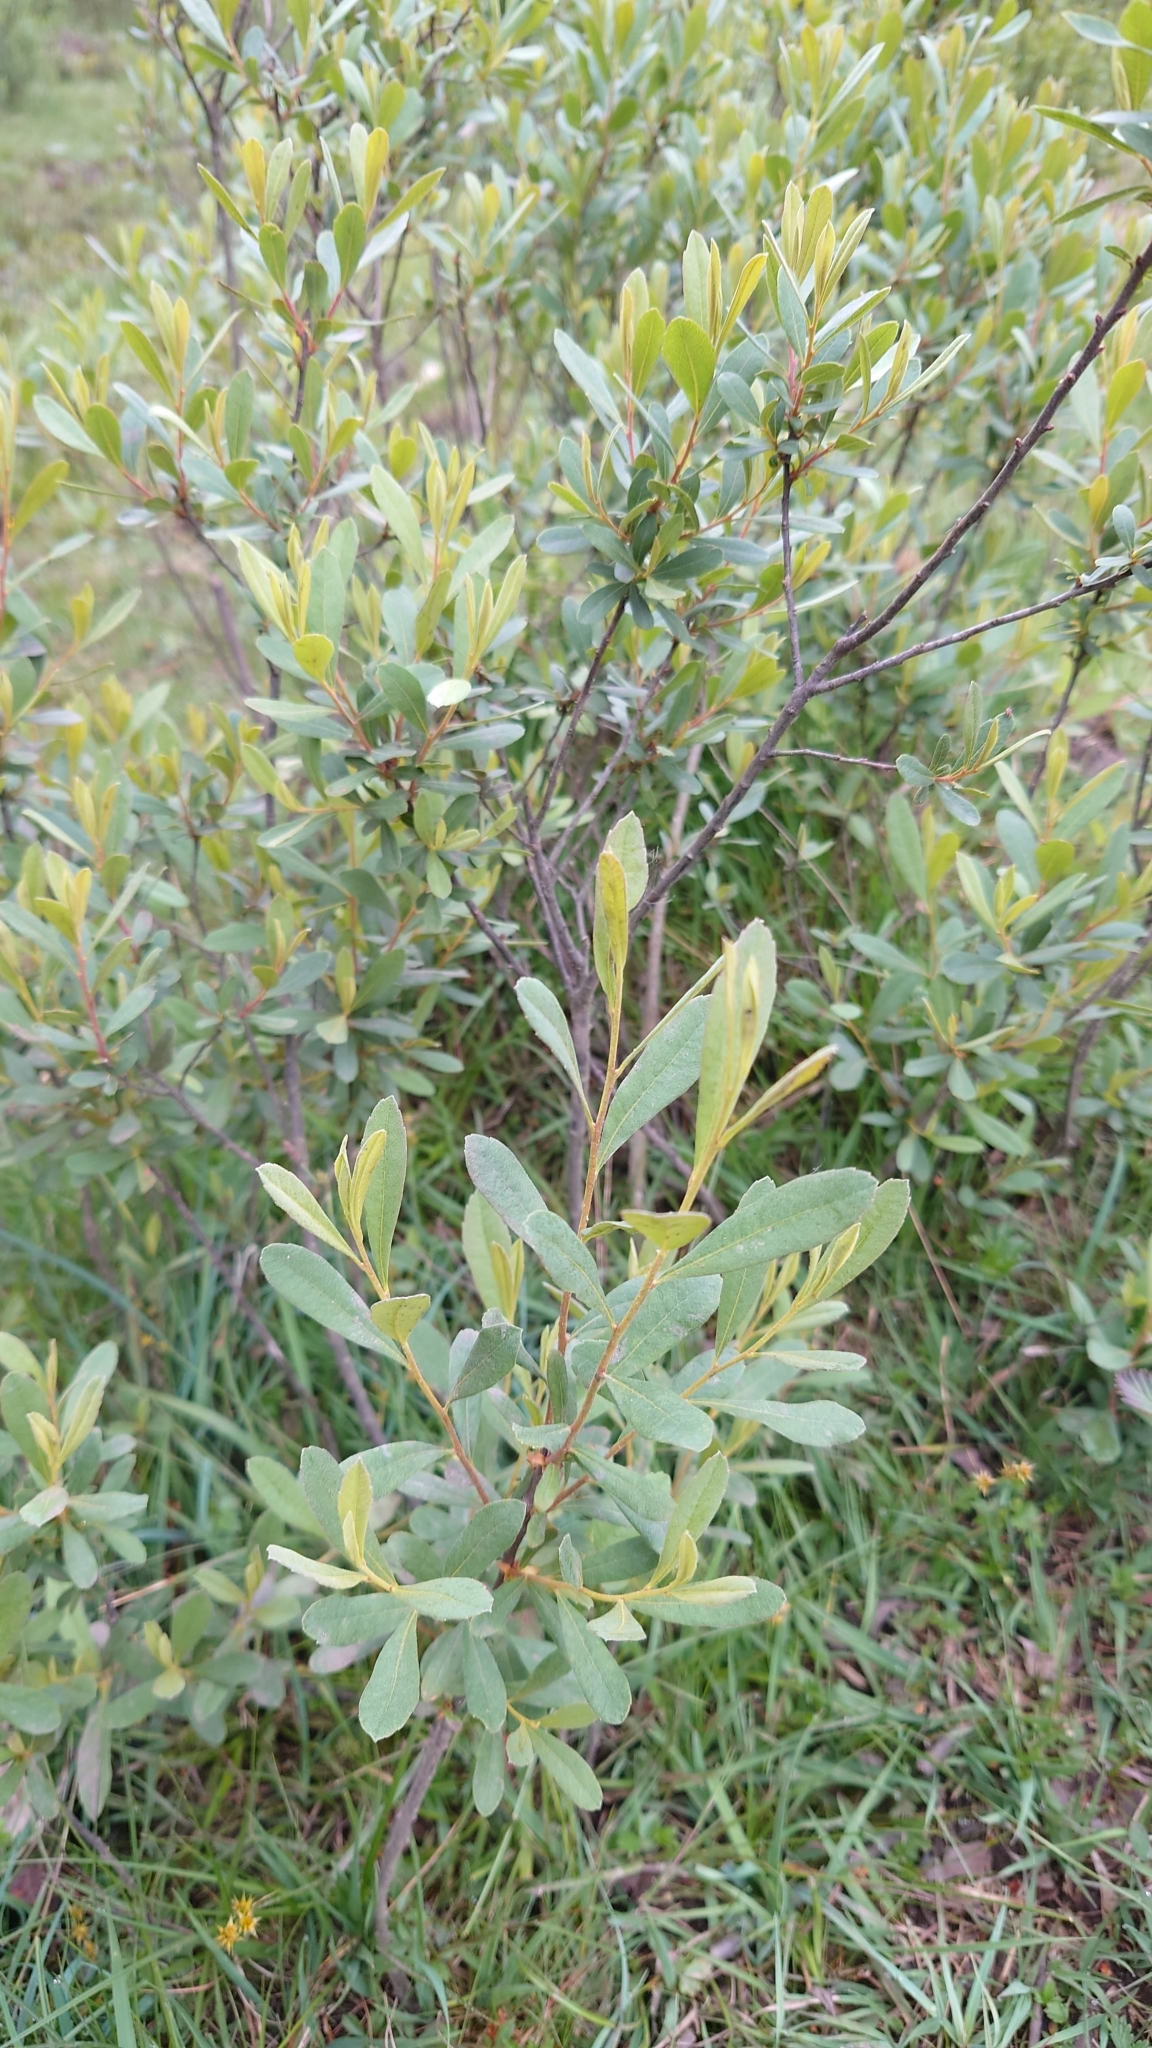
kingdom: Plantae
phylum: Tracheophyta
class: Magnoliopsida
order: Fagales
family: Myricaceae
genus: Myrica
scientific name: Myrica gale
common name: Sweet gale
